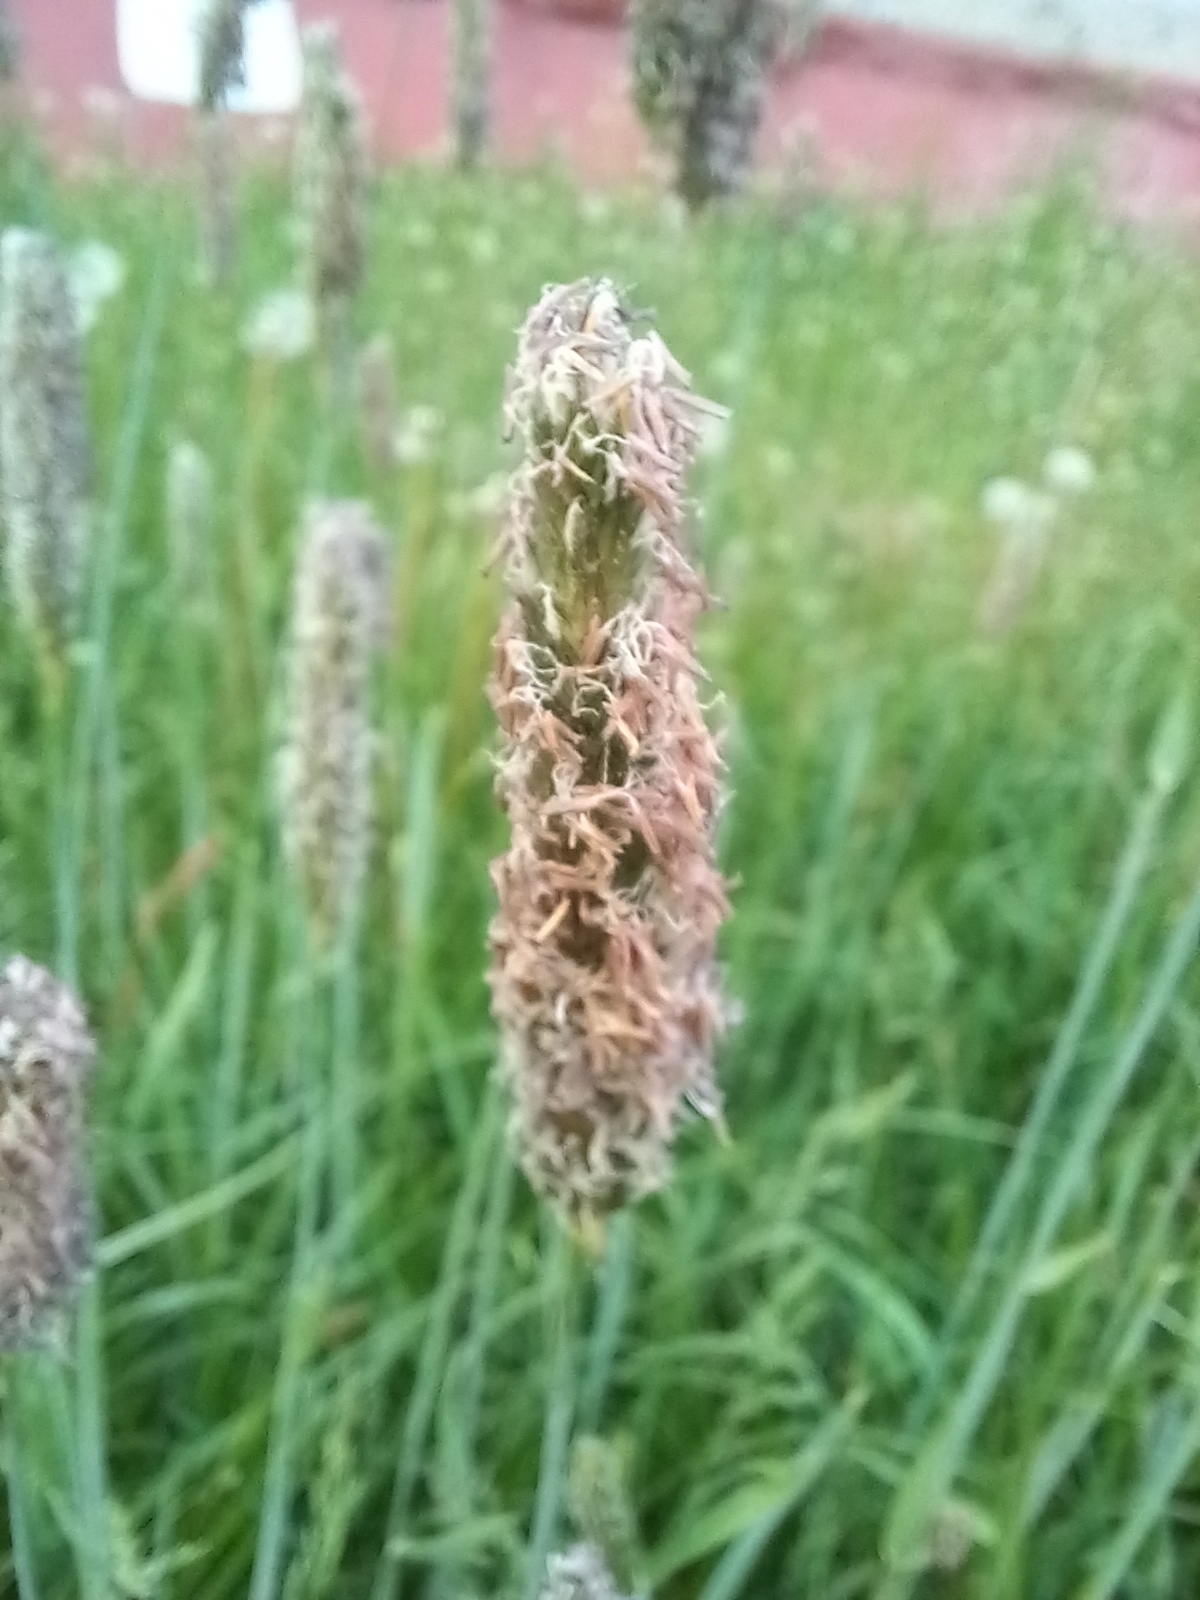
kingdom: Plantae
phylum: Tracheophyta
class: Liliopsida
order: Poales
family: Poaceae
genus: Alopecurus
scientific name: Alopecurus pratensis
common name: Meadow foxtail
